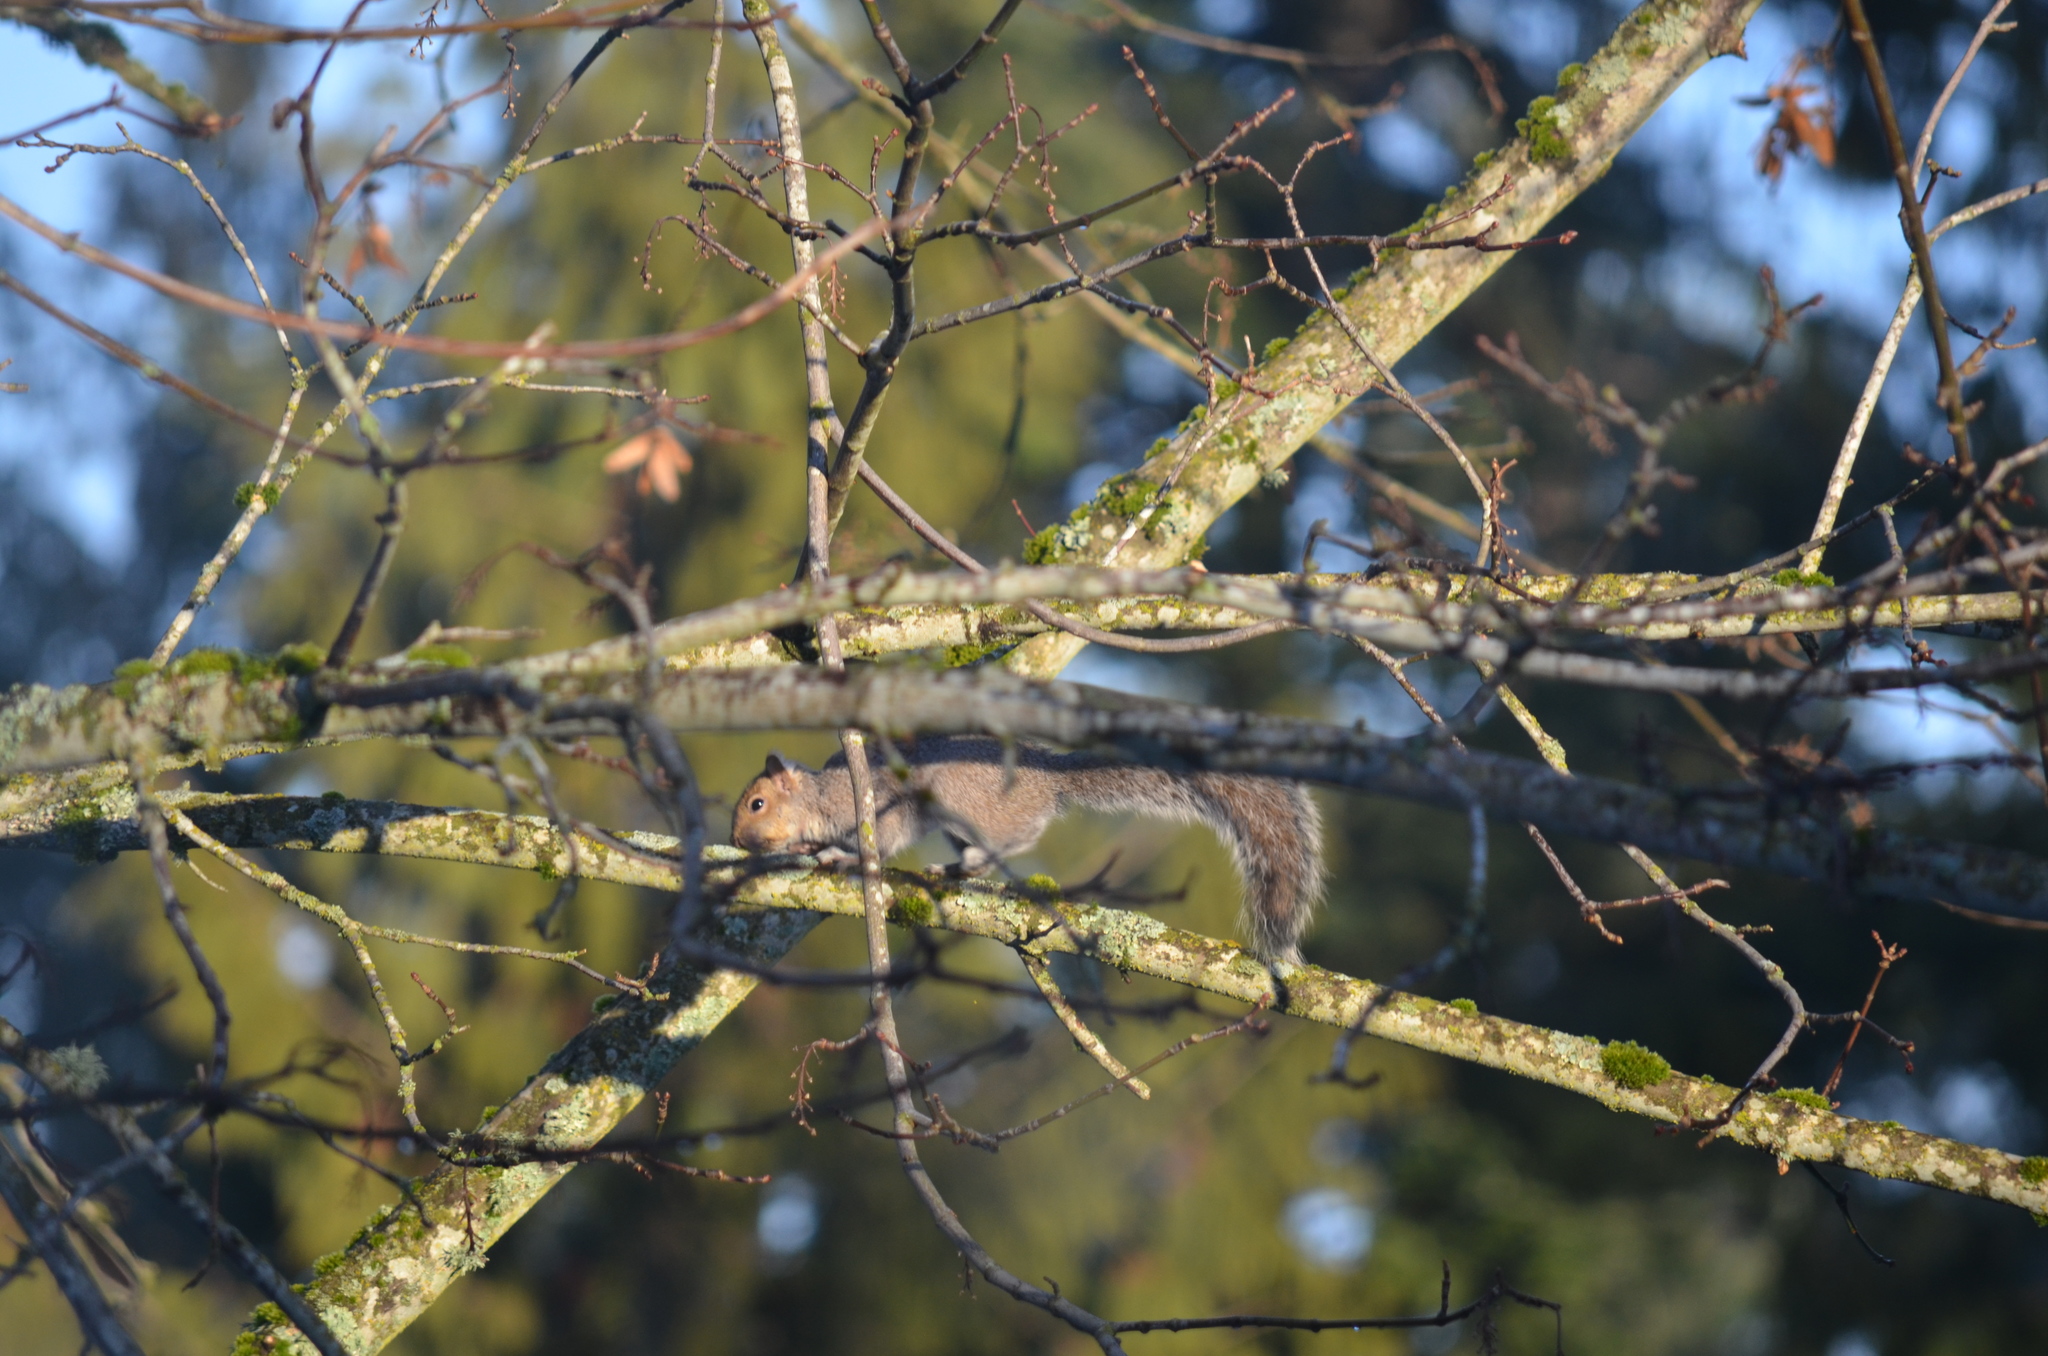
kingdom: Animalia
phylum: Chordata
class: Mammalia
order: Rodentia
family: Sciuridae
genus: Sciurus
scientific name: Sciurus carolinensis
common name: Eastern gray squirrel
